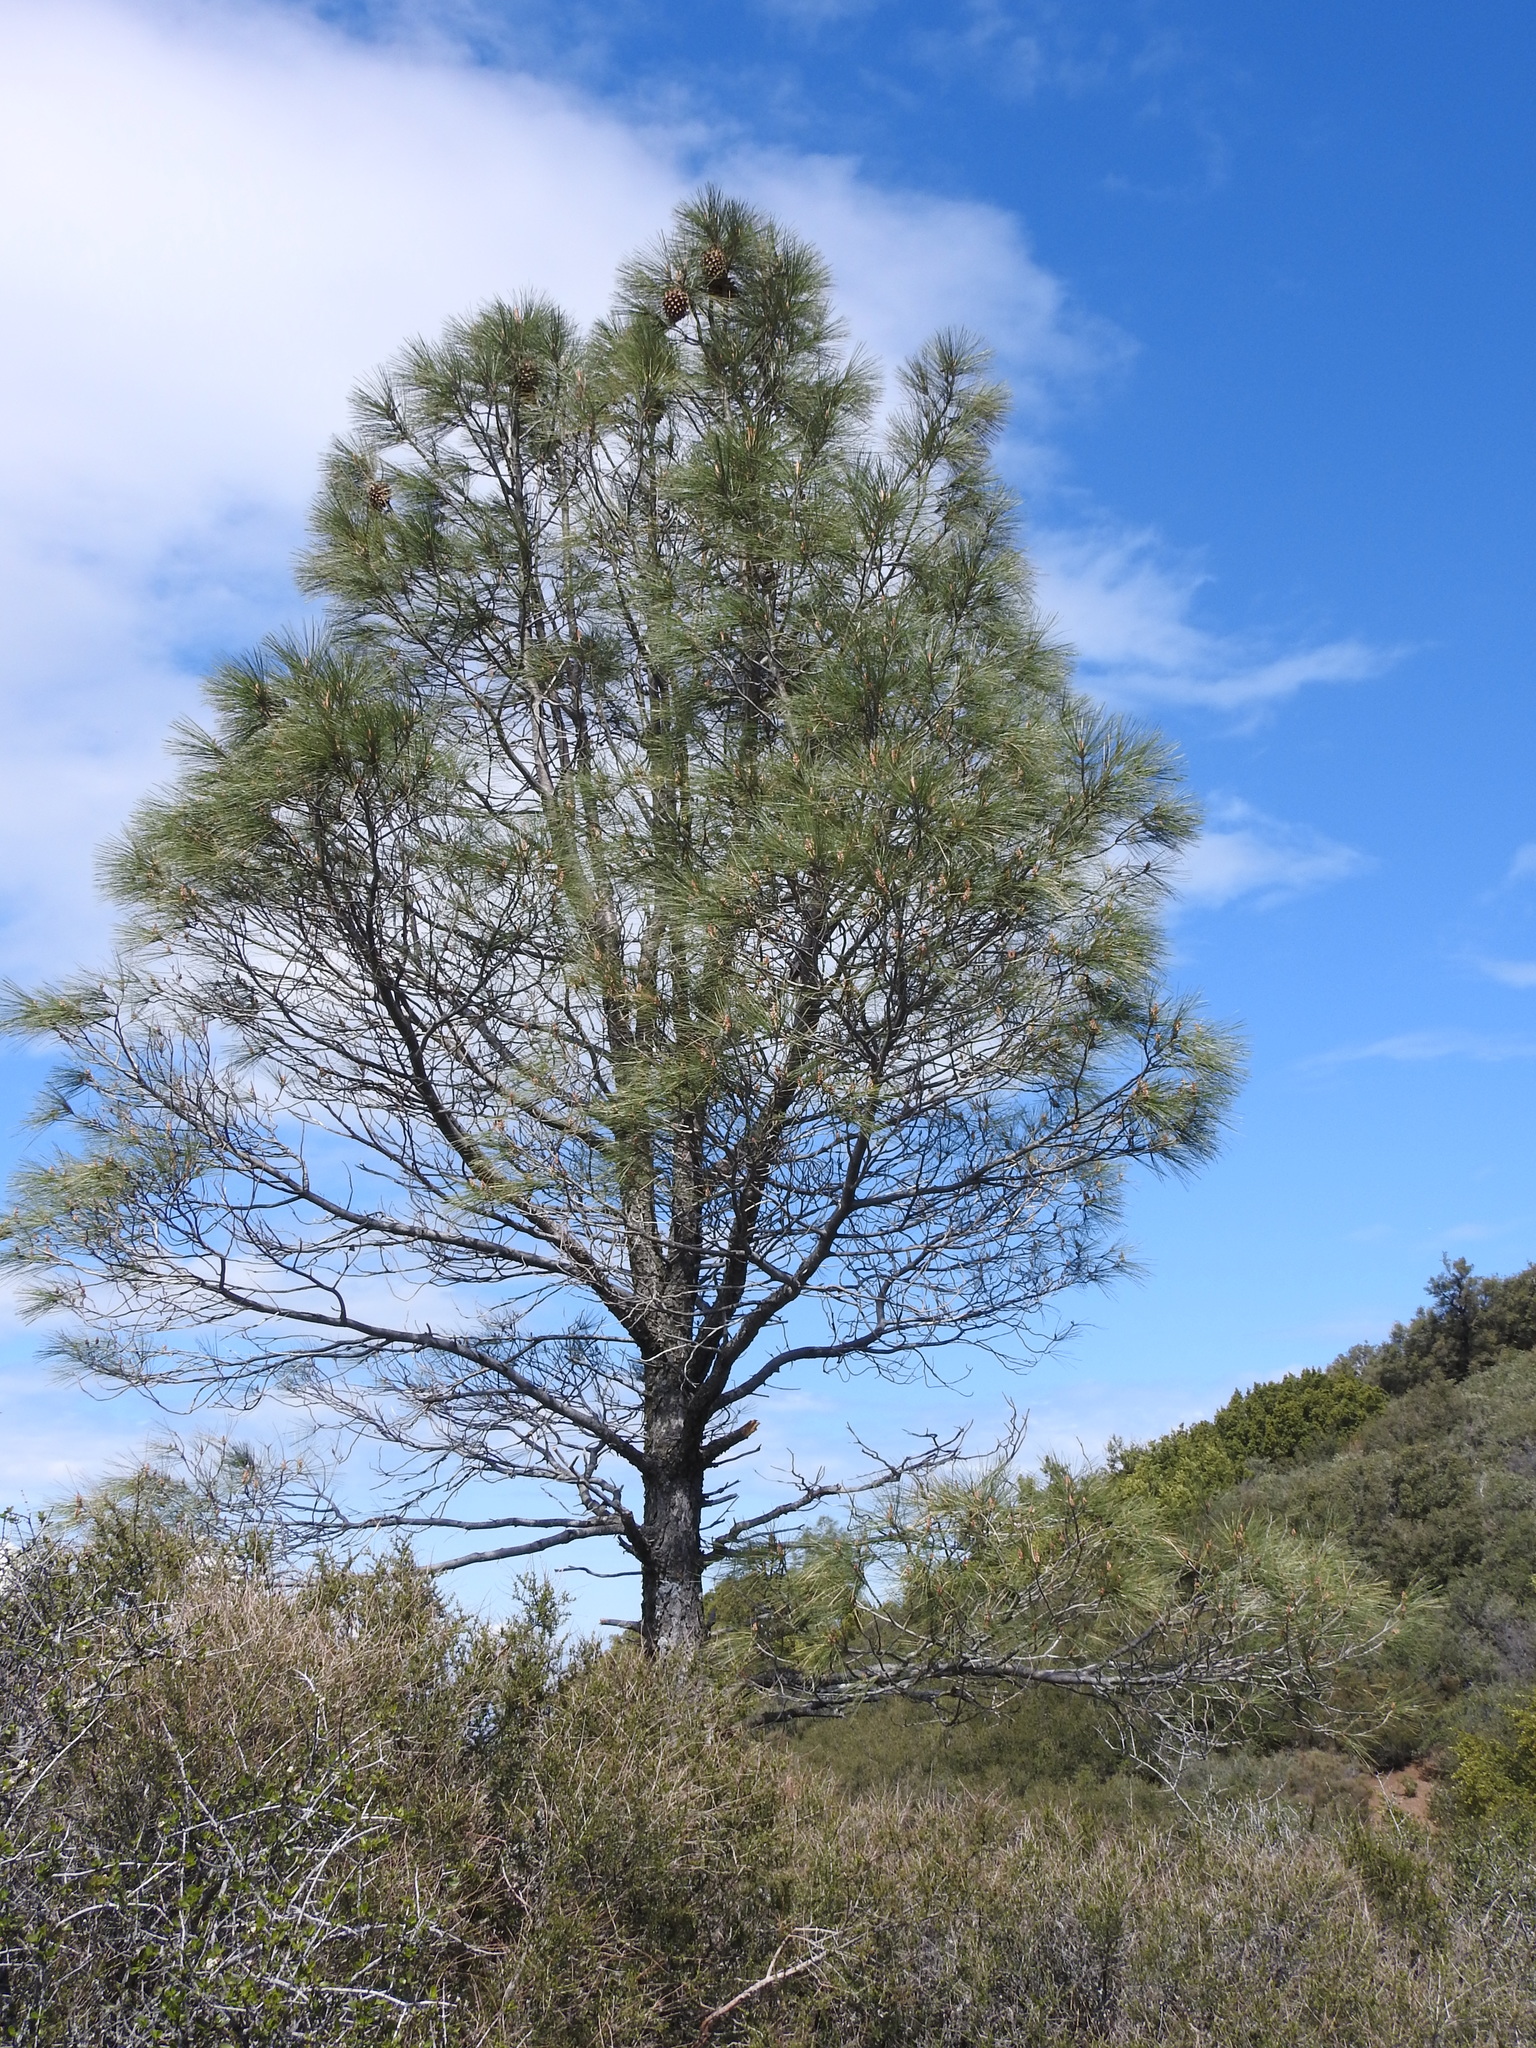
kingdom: Plantae
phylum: Tracheophyta
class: Pinopsida
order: Pinales
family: Pinaceae
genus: Pinus
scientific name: Pinus sabiniana
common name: Bull pine
